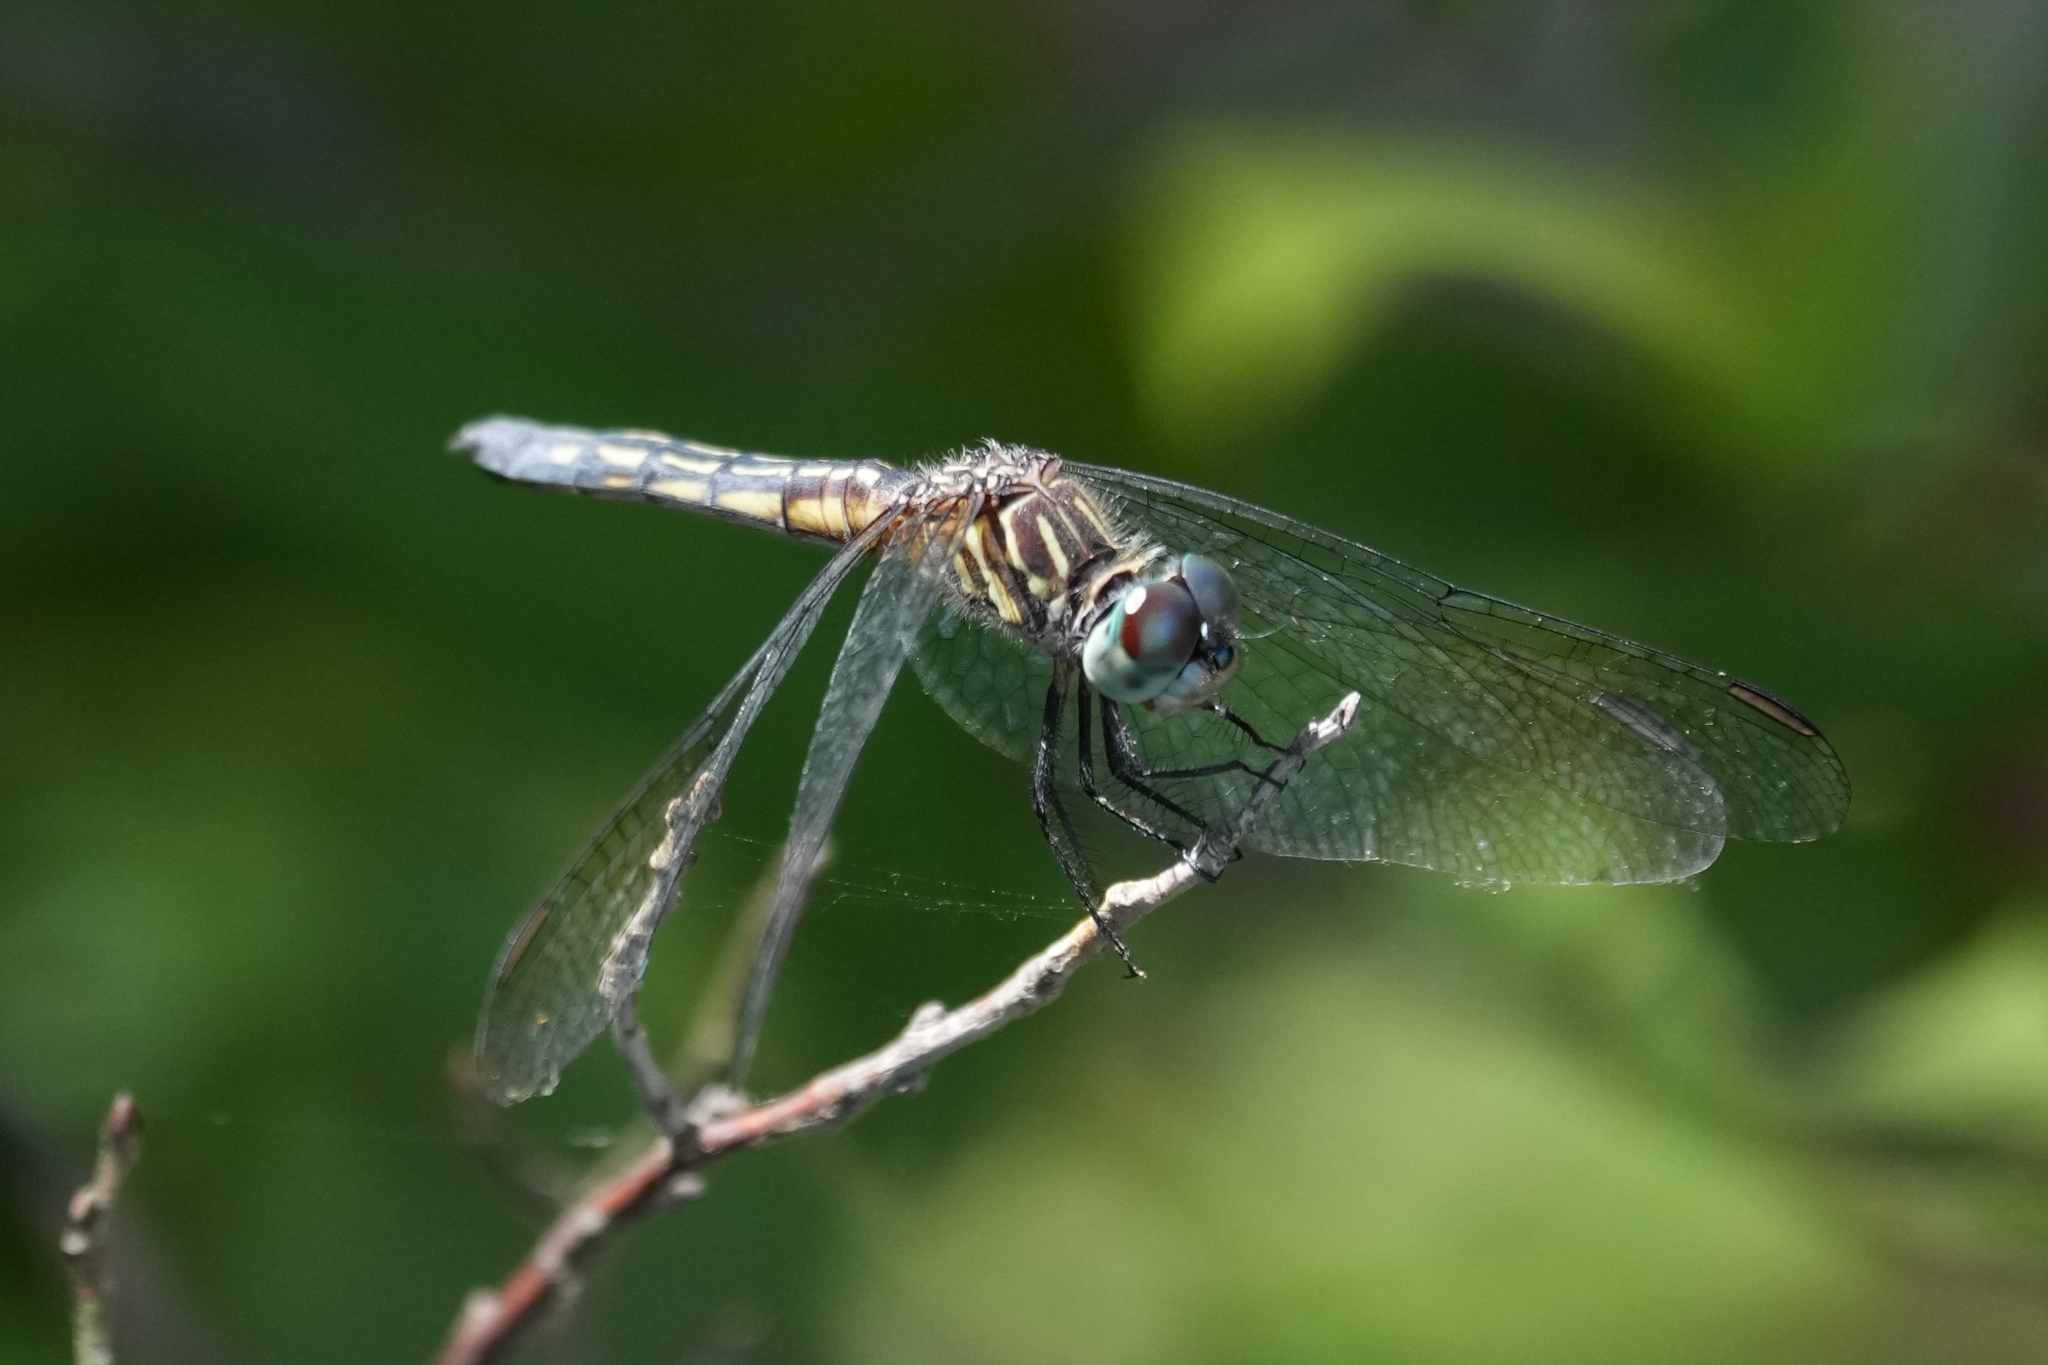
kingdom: Animalia
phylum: Arthropoda
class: Insecta
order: Odonata
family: Libellulidae
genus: Pachydiplax
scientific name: Pachydiplax longipennis
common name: Blue dasher
